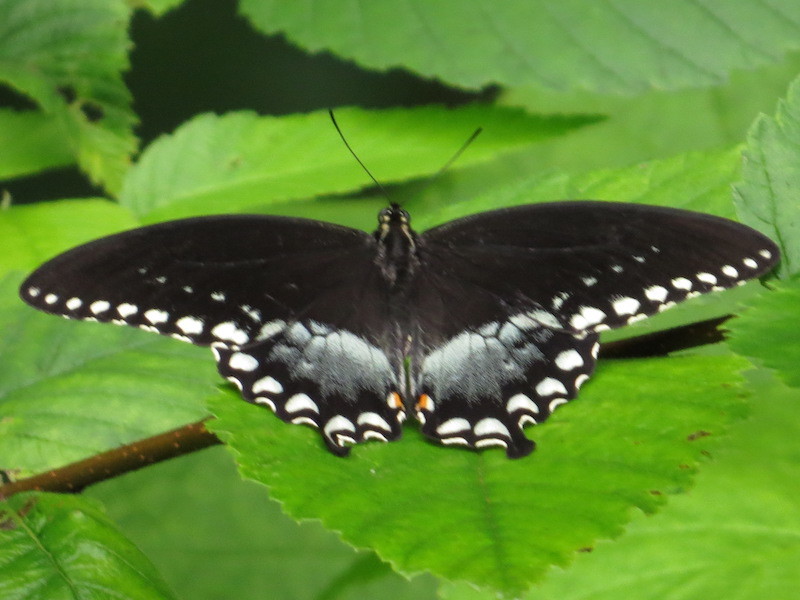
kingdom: Animalia
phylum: Arthropoda
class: Insecta
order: Lepidoptera
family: Papilionidae
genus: Papilio
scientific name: Papilio troilus
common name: Spicebush swallowtail
